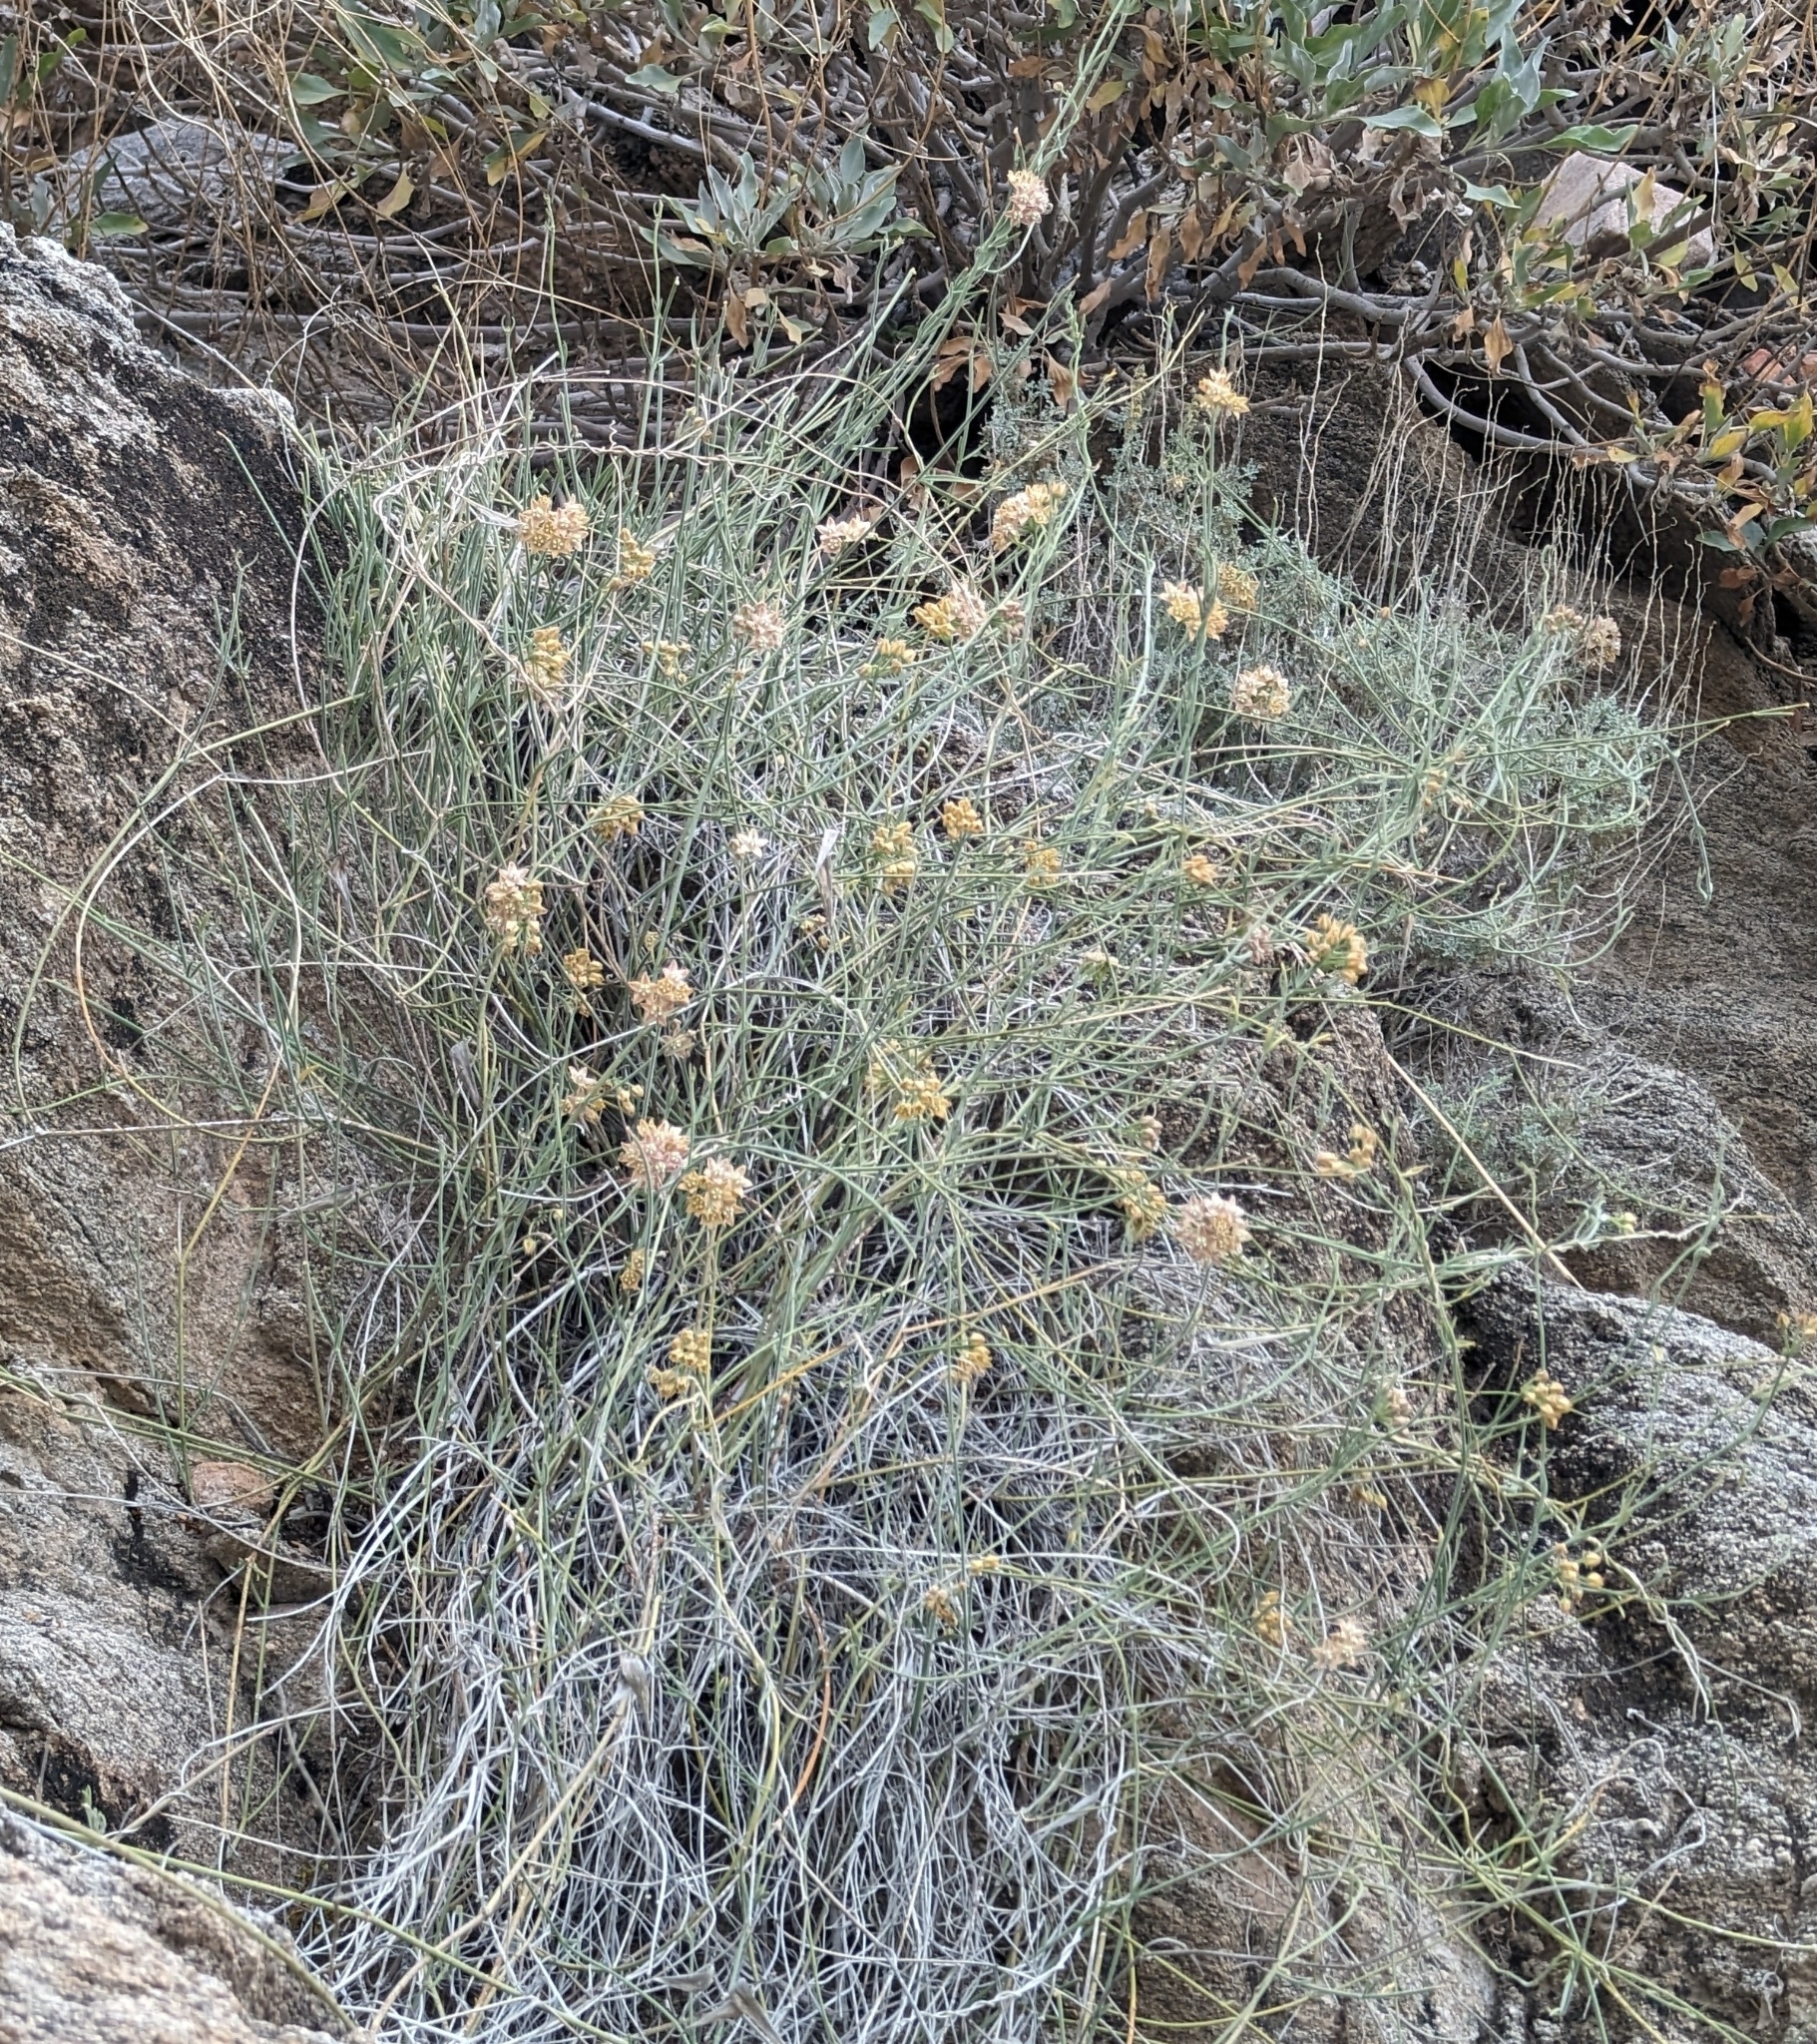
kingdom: Plantae
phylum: Tracheophyta
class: Magnoliopsida
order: Gentianales
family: Apocynaceae
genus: Funastrum
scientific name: Funastrum hirtellum
